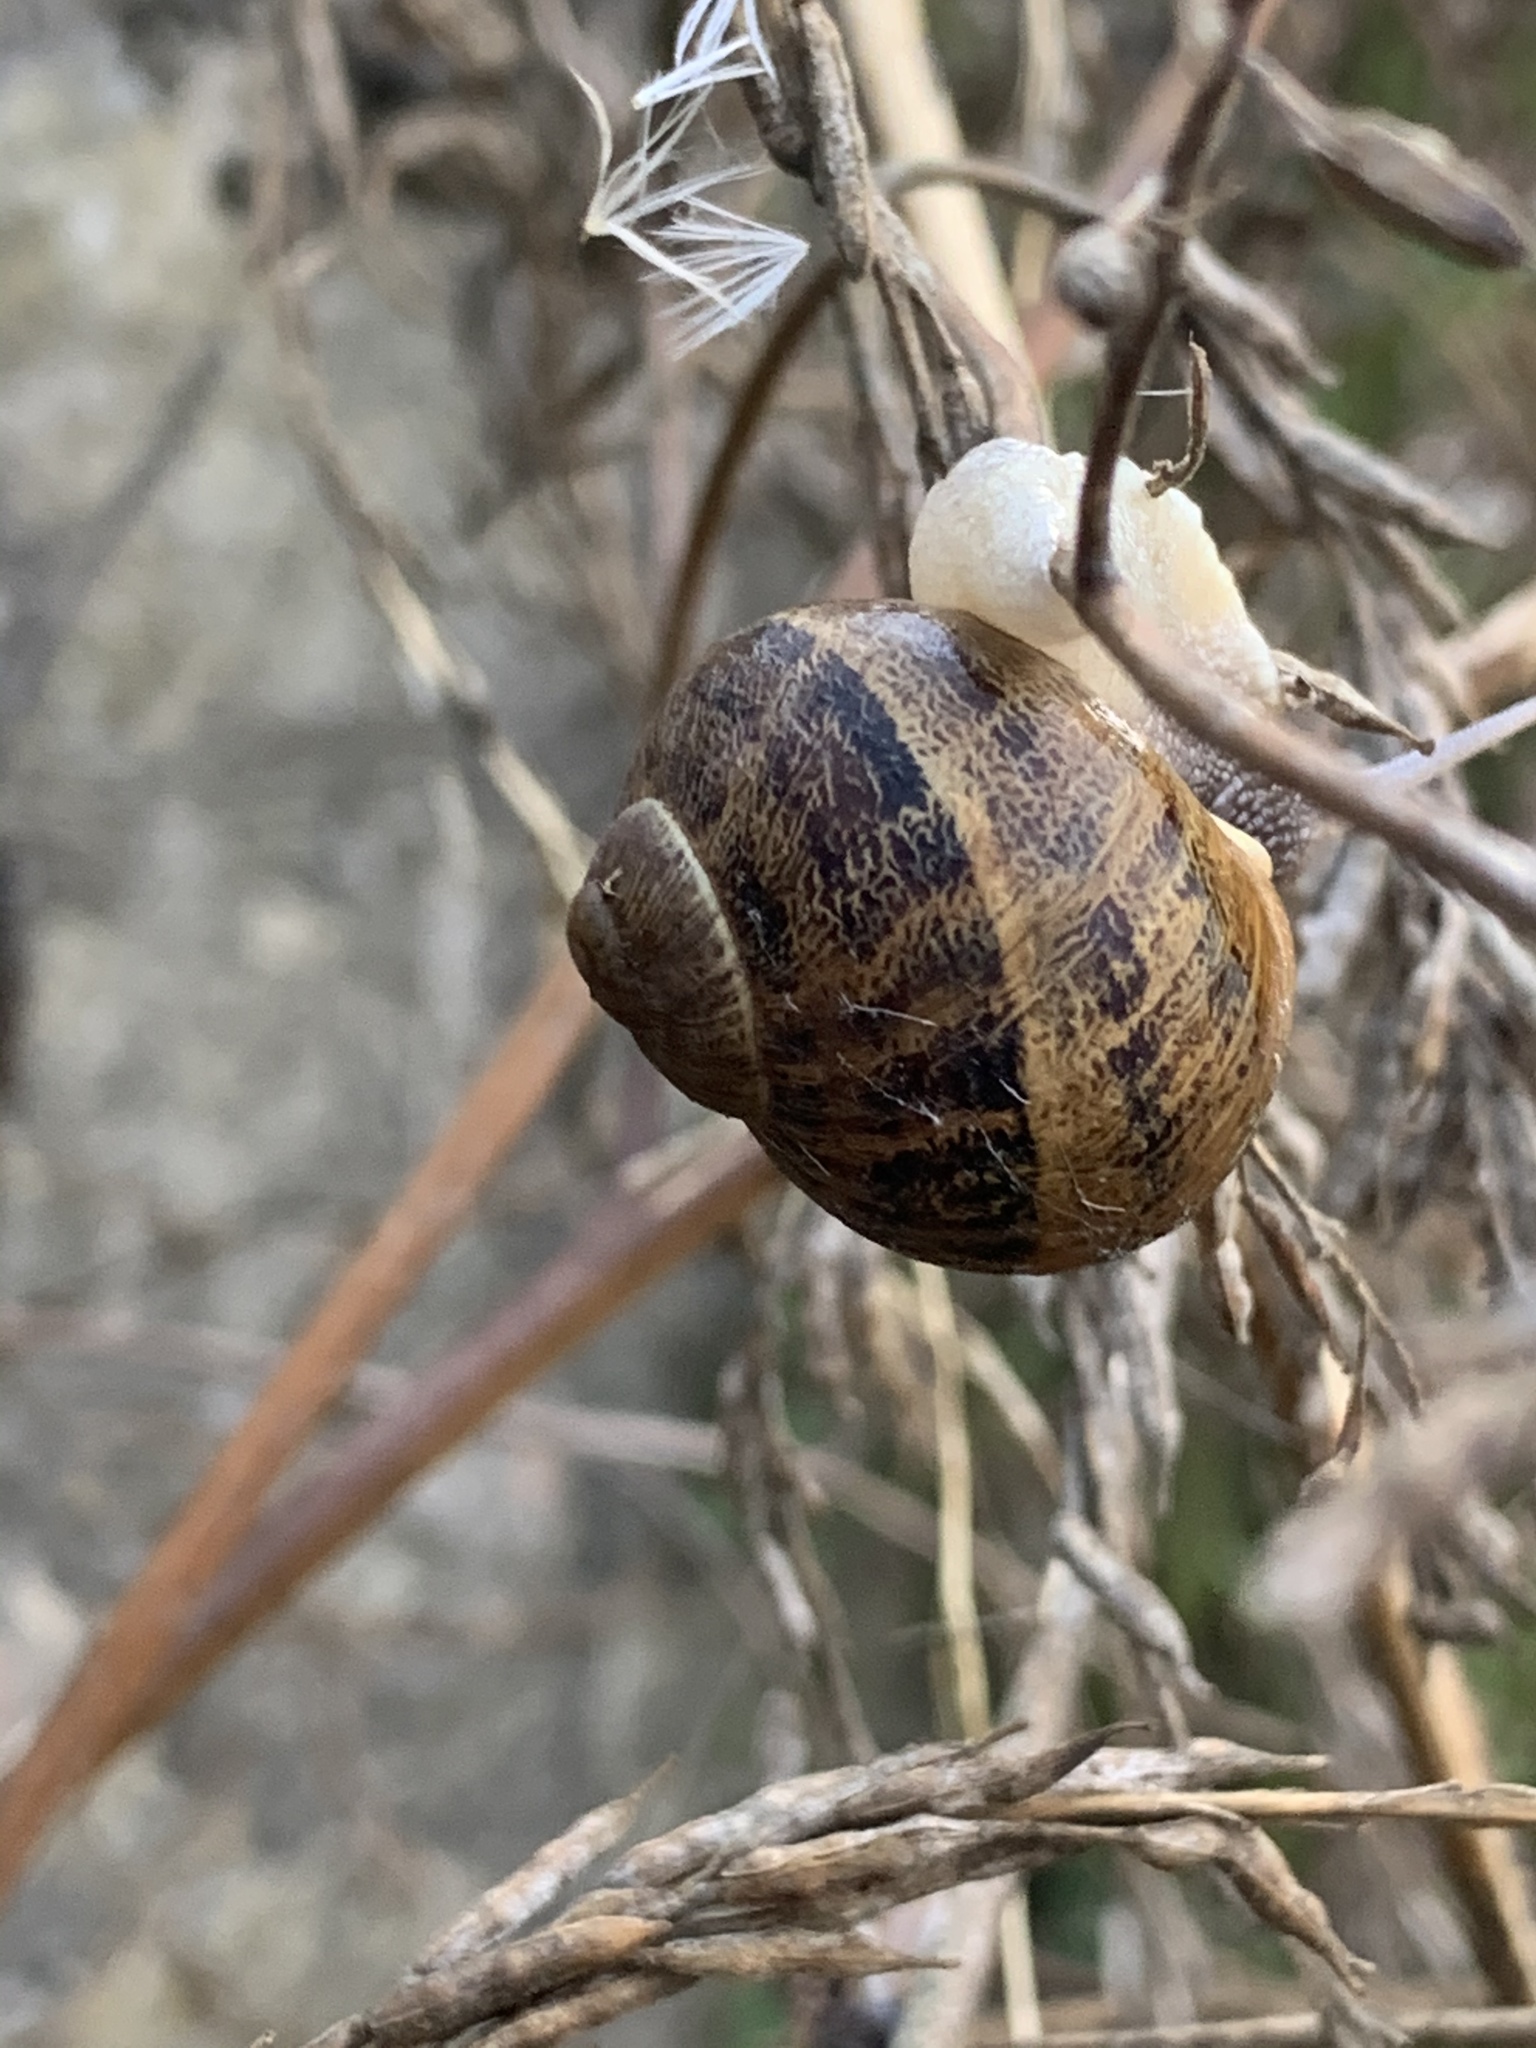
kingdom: Animalia
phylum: Mollusca
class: Gastropoda
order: Stylommatophora
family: Helicidae
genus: Cornu
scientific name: Cornu aspersum
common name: Brown garden snail
